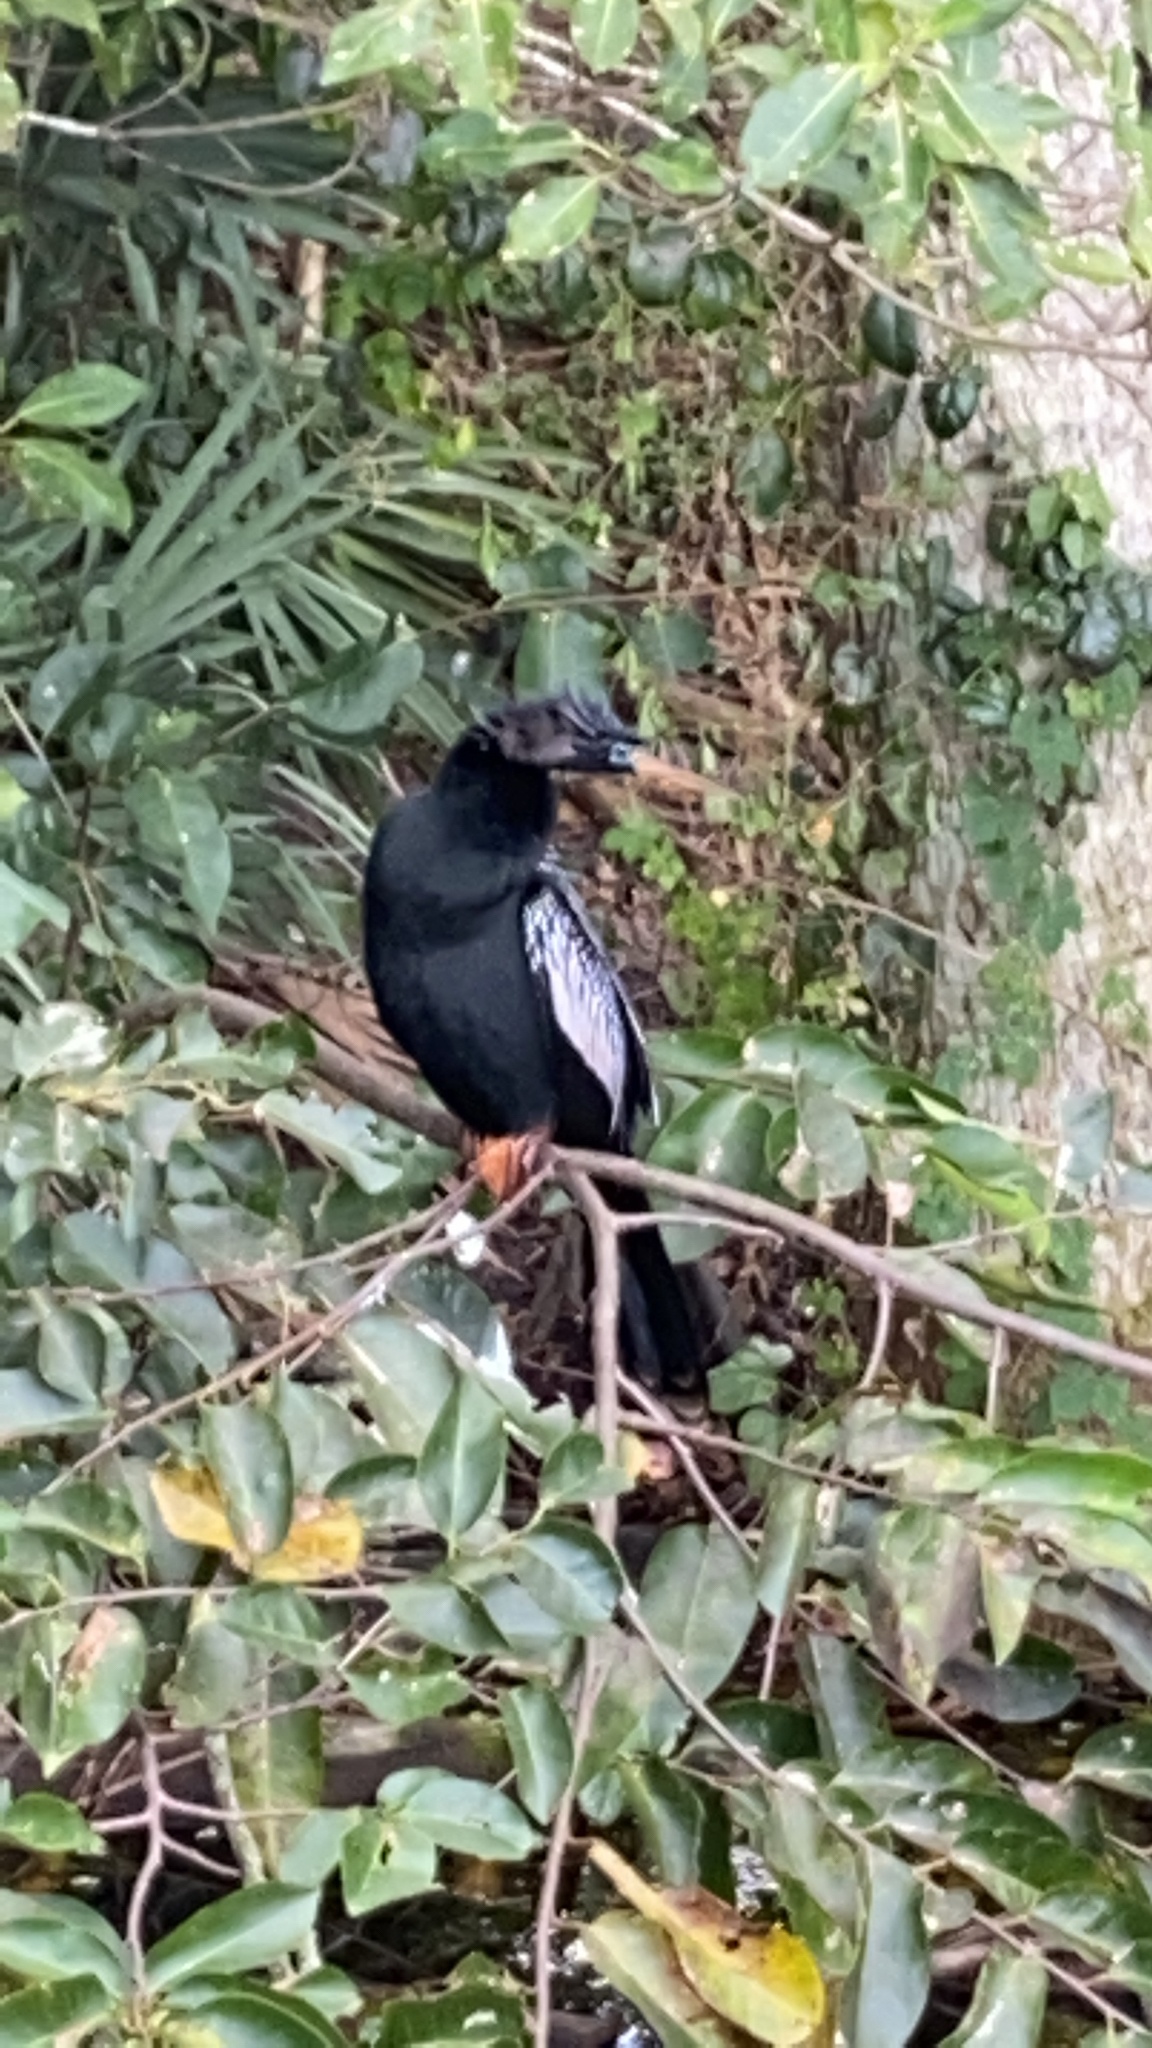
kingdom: Animalia
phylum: Chordata
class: Aves
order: Suliformes
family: Anhingidae
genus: Anhinga
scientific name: Anhinga anhinga
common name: Anhinga
